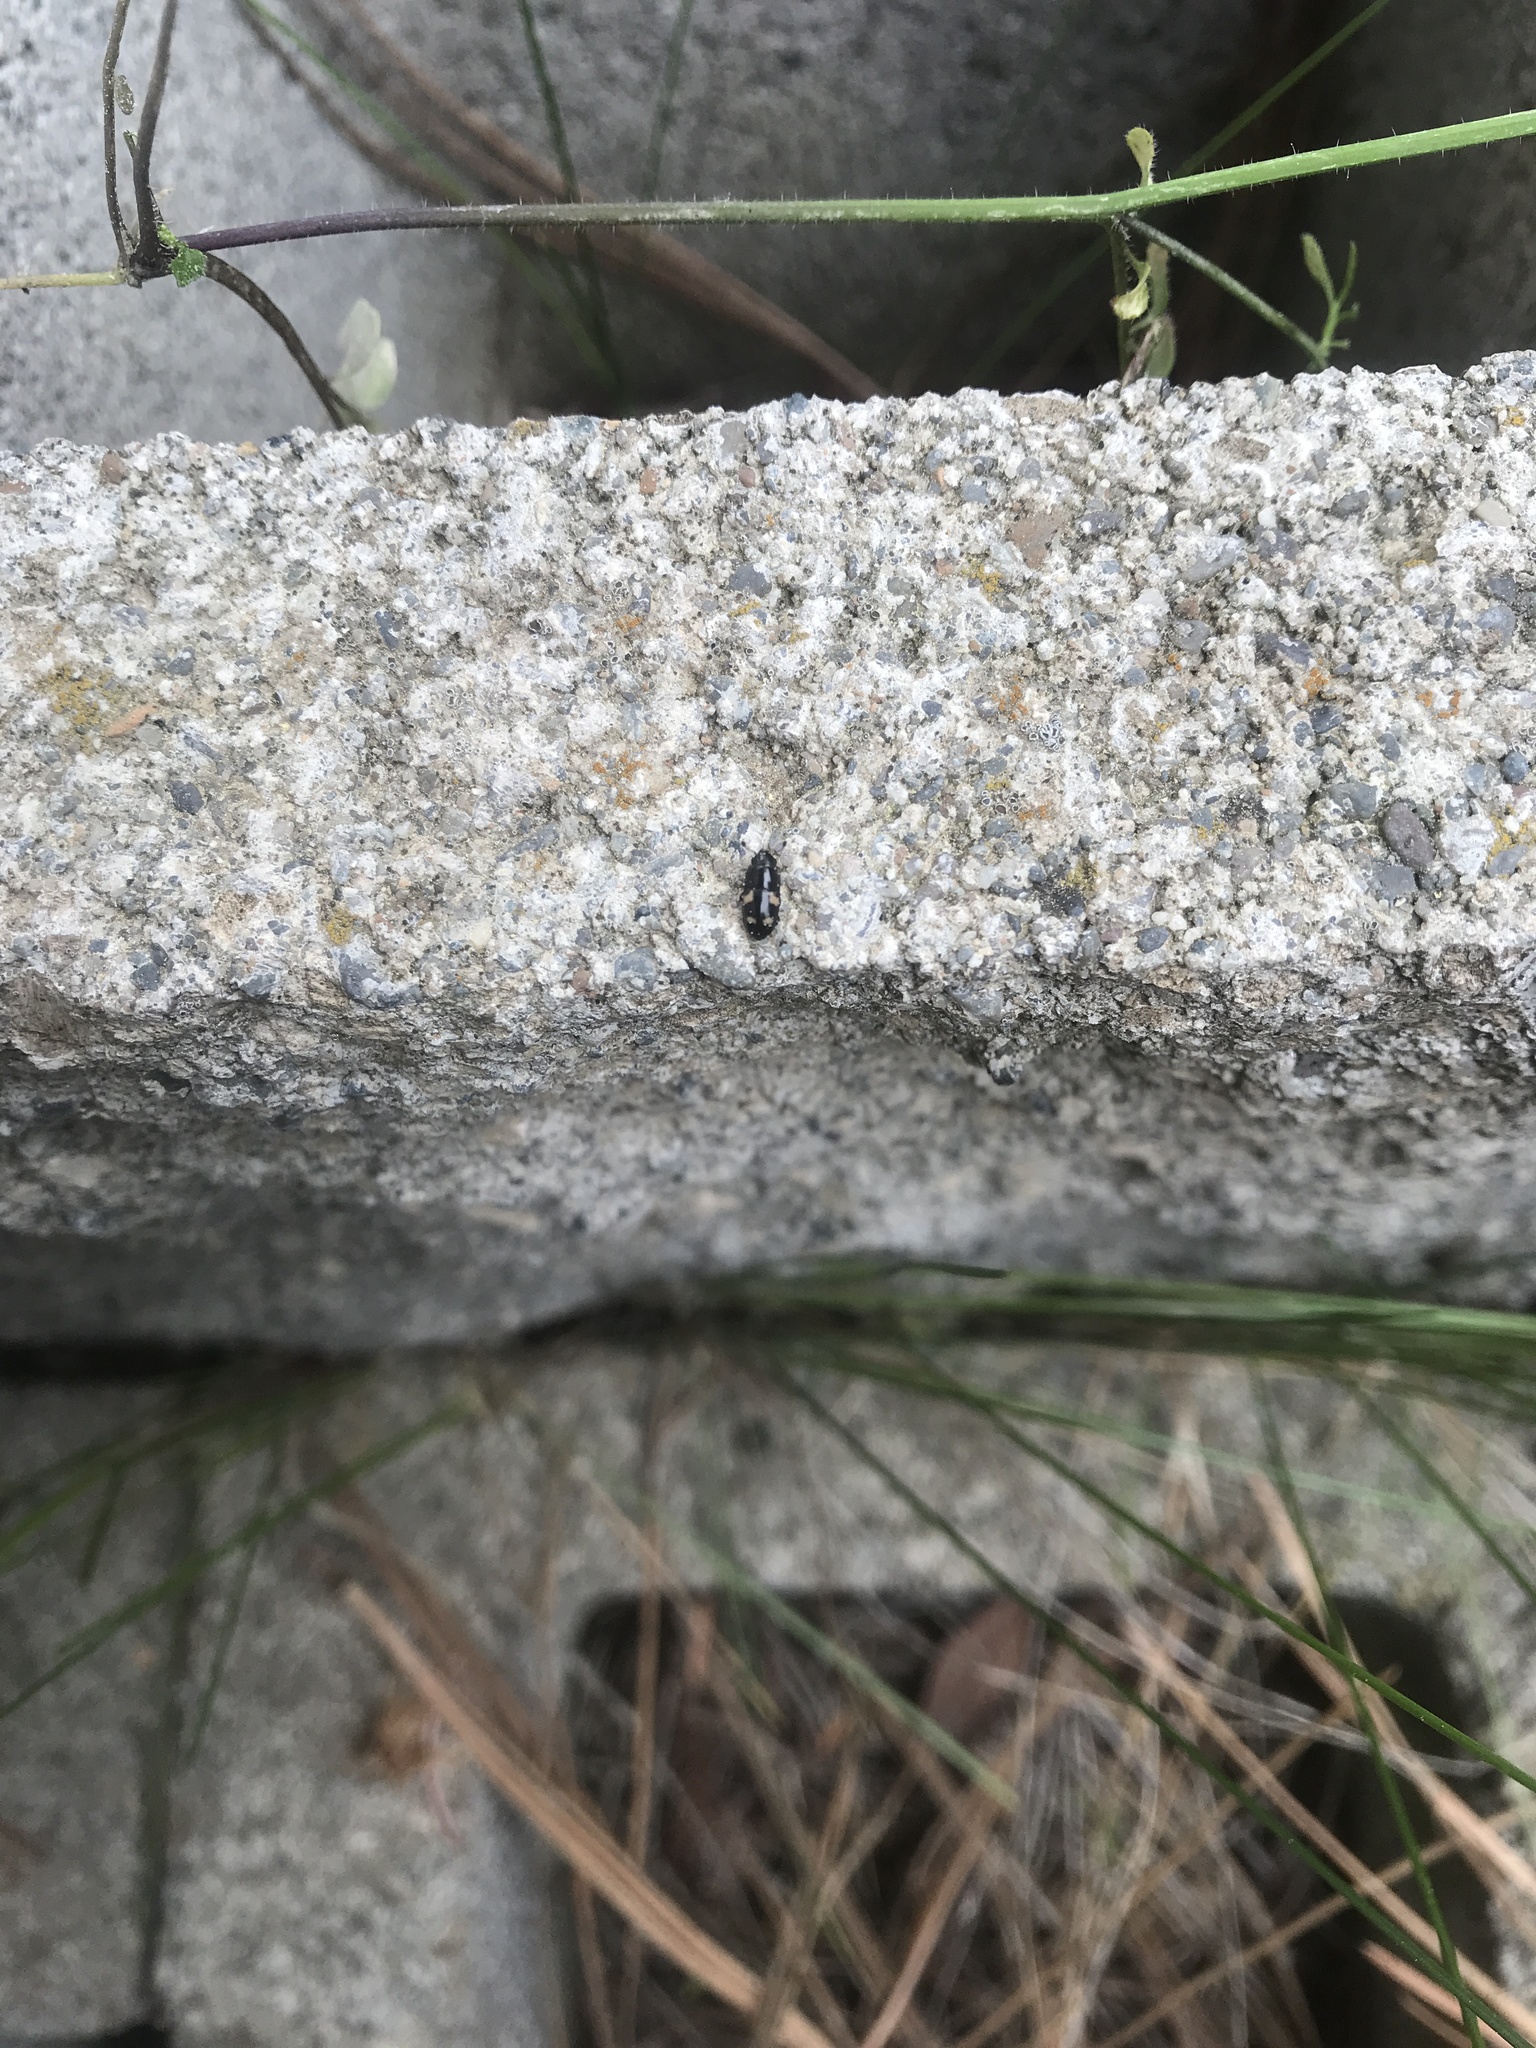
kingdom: Animalia
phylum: Arthropoda
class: Insecta
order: Coleoptera
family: Nitidulidae
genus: Glischrochilus
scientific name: Glischrochilus quadrisignatus
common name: Picnic beetle
